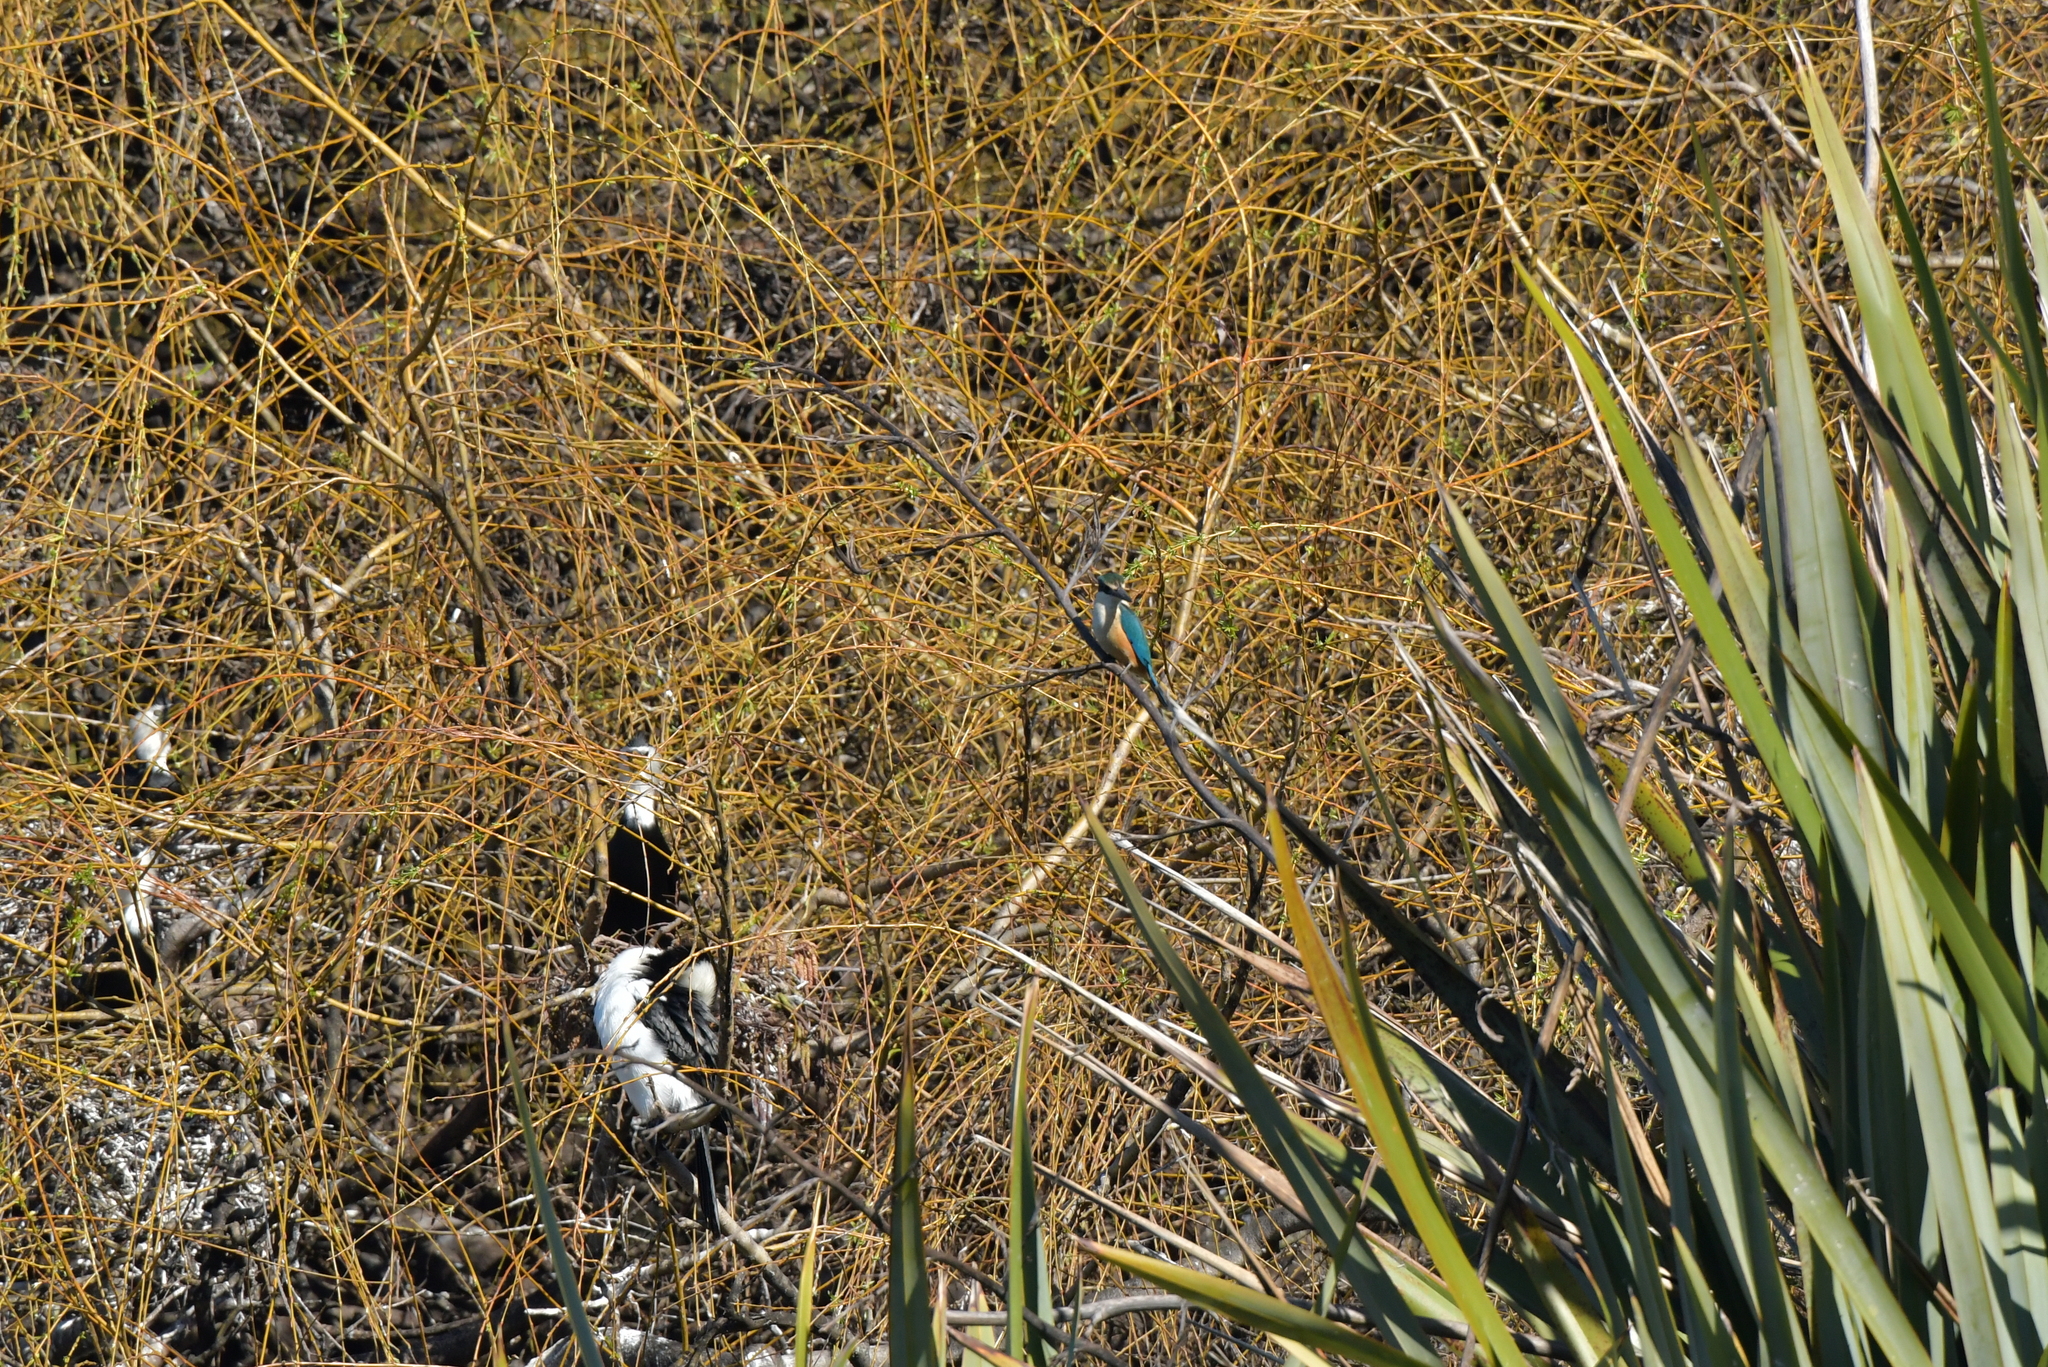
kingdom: Animalia
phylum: Chordata
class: Aves
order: Coraciiformes
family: Alcedinidae
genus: Todiramphus
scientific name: Todiramphus sanctus
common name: Sacred kingfisher
